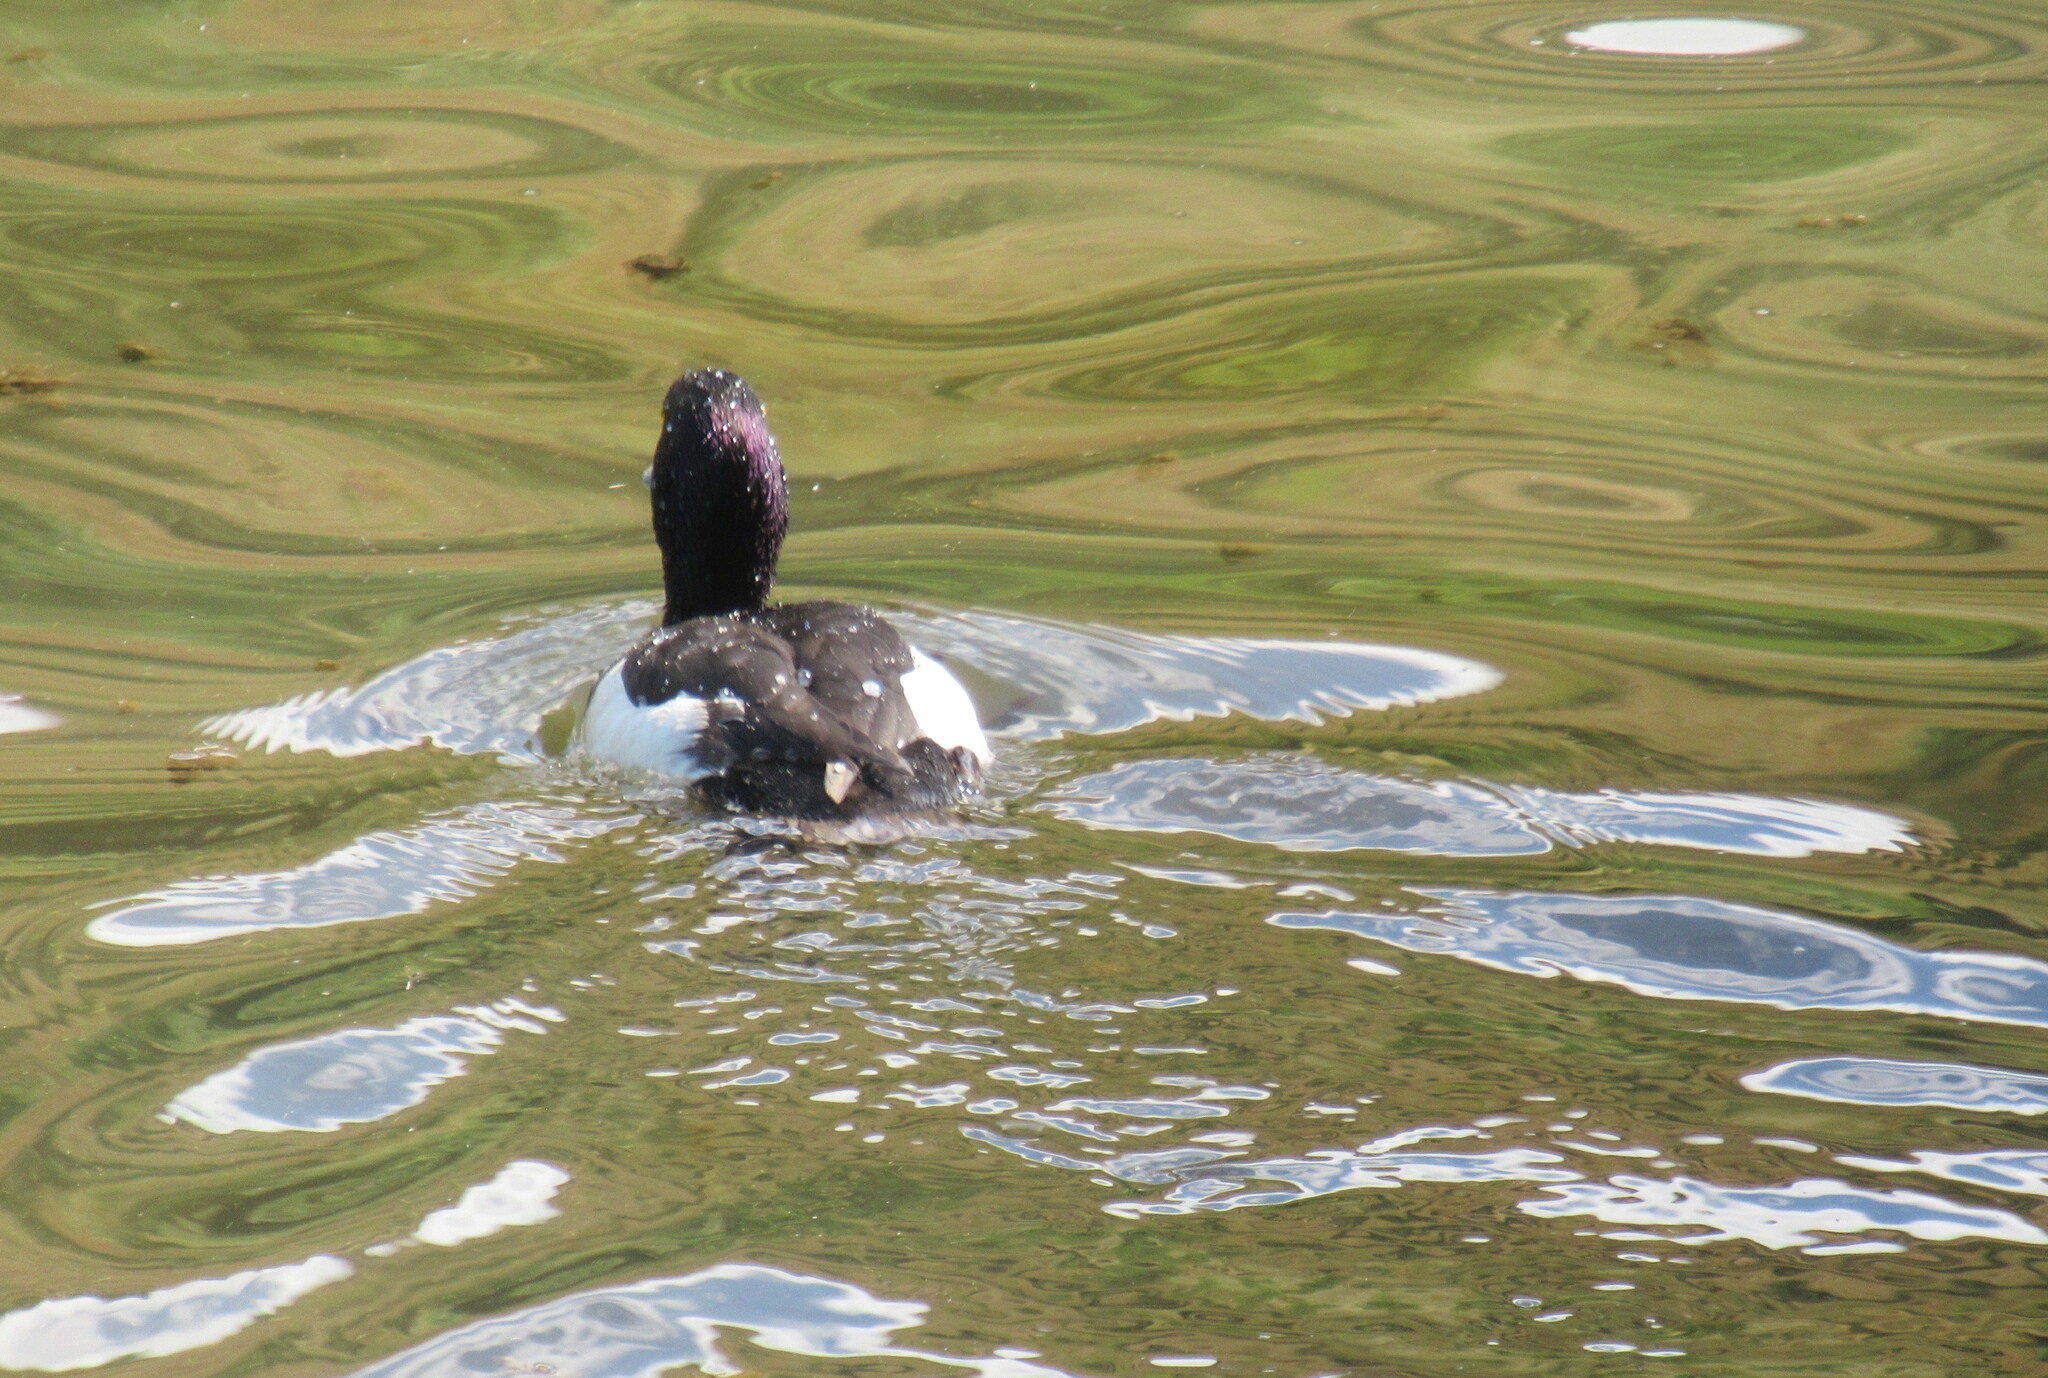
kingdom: Animalia
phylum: Chordata
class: Aves
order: Anseriformes
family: Anatidae
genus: Aythya
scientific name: Aythya fuligula
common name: Tufted duck
